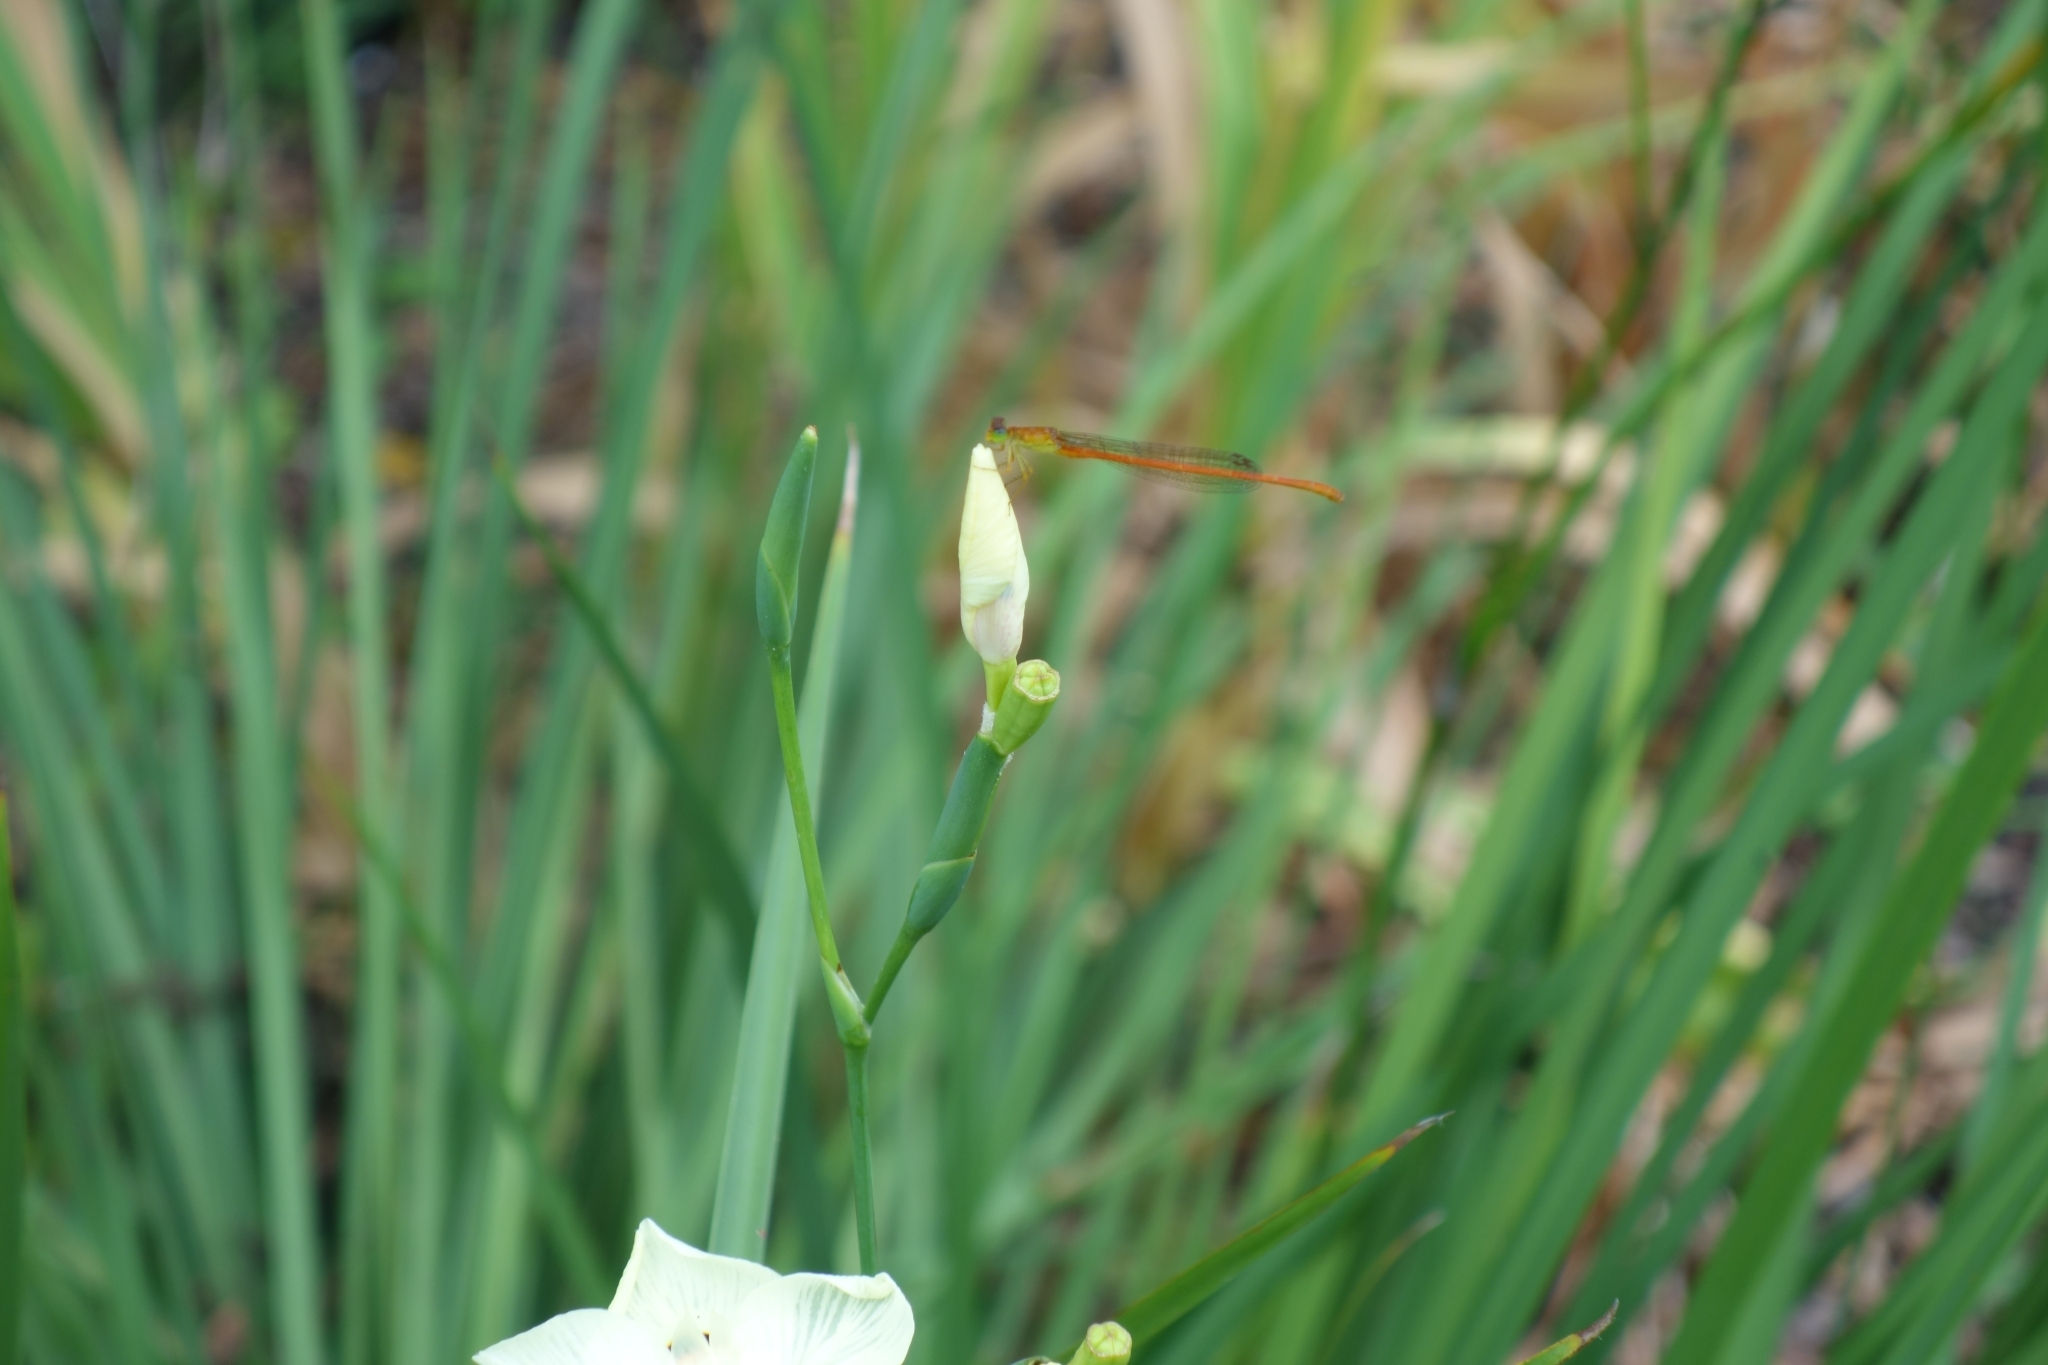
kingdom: Animalia
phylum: Arthropoda
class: Insecta
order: Odonata
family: Coenagrionidae
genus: Ceriagrion
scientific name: Ceriagrion glabrum
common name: Common pond damsel
